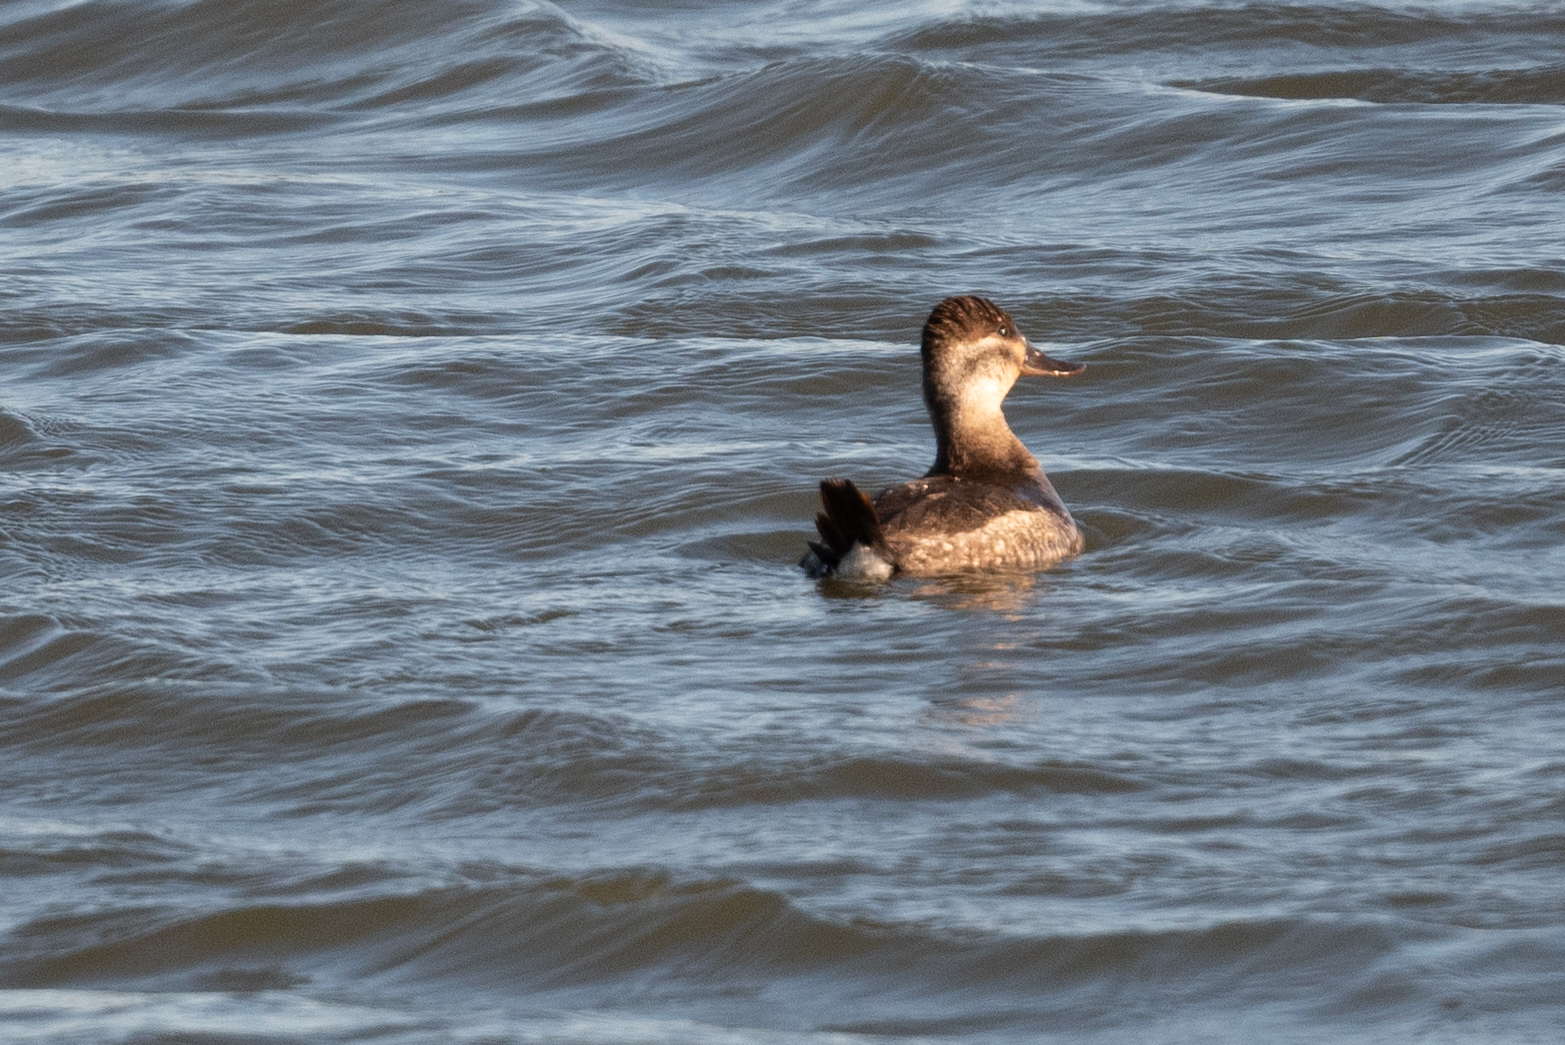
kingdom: Animalia
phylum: Chordata
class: Aves
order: Anseriformes
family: Anatidae
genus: Oxyura
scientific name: Oxyura jamaicensis
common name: Ruddy duck
